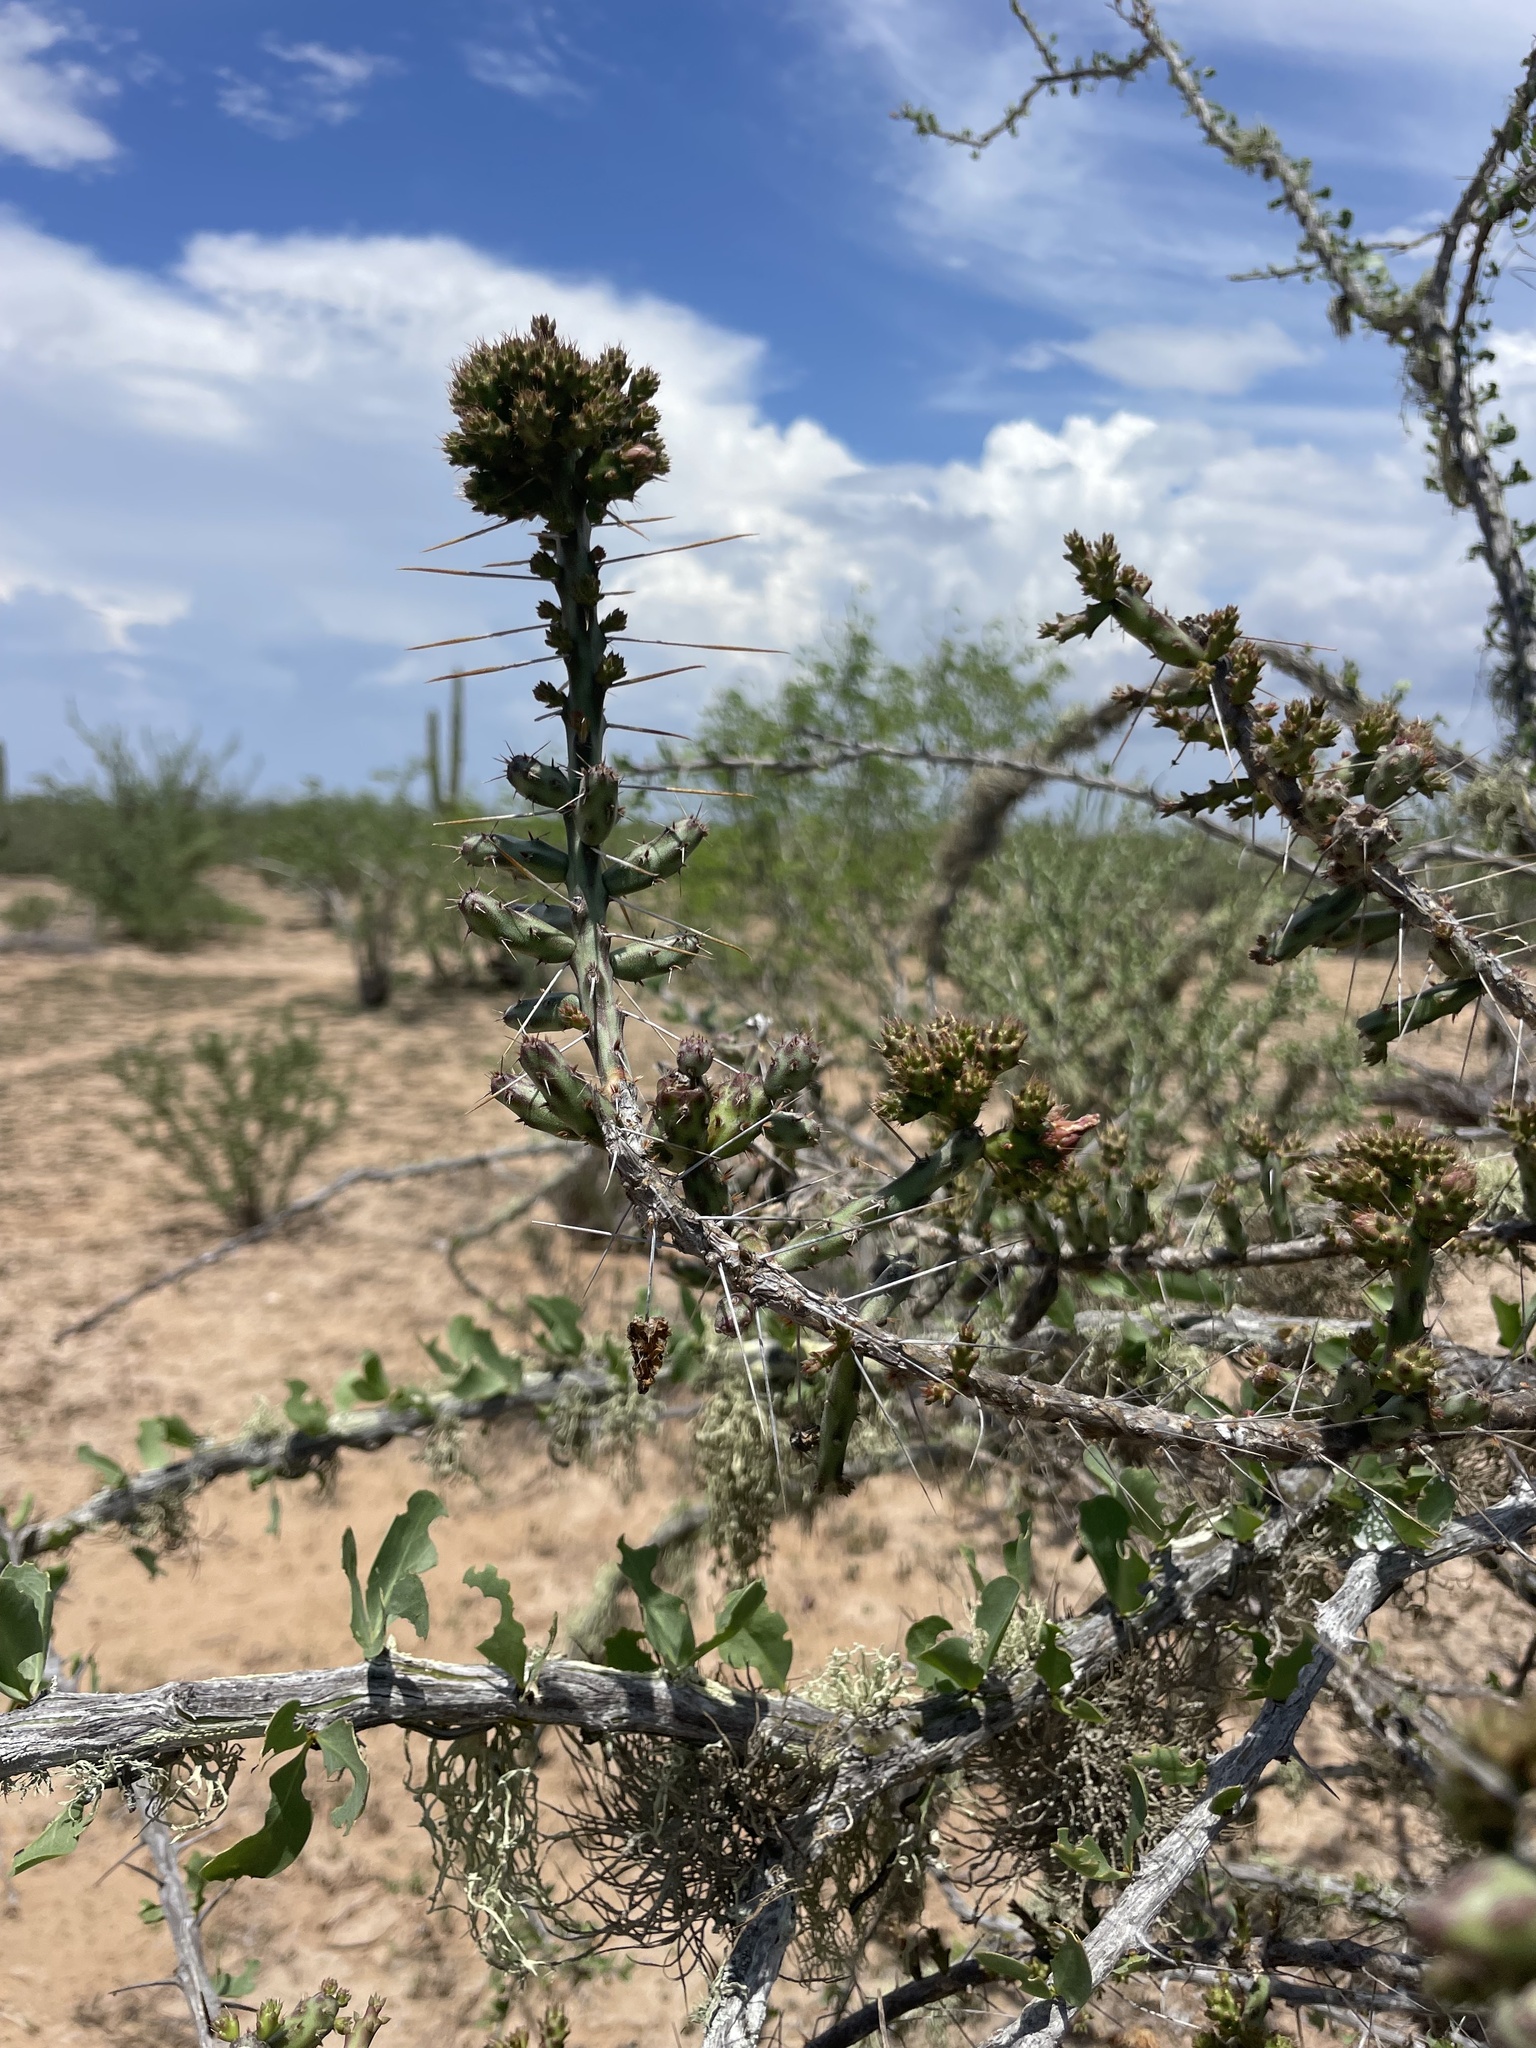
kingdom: Plantae
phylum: Tracheophyta
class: Magnoliopsida
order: Caryophyllales
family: Cactaceae
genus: Cylindropuntia
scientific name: Cylindropuntia lindsayi
